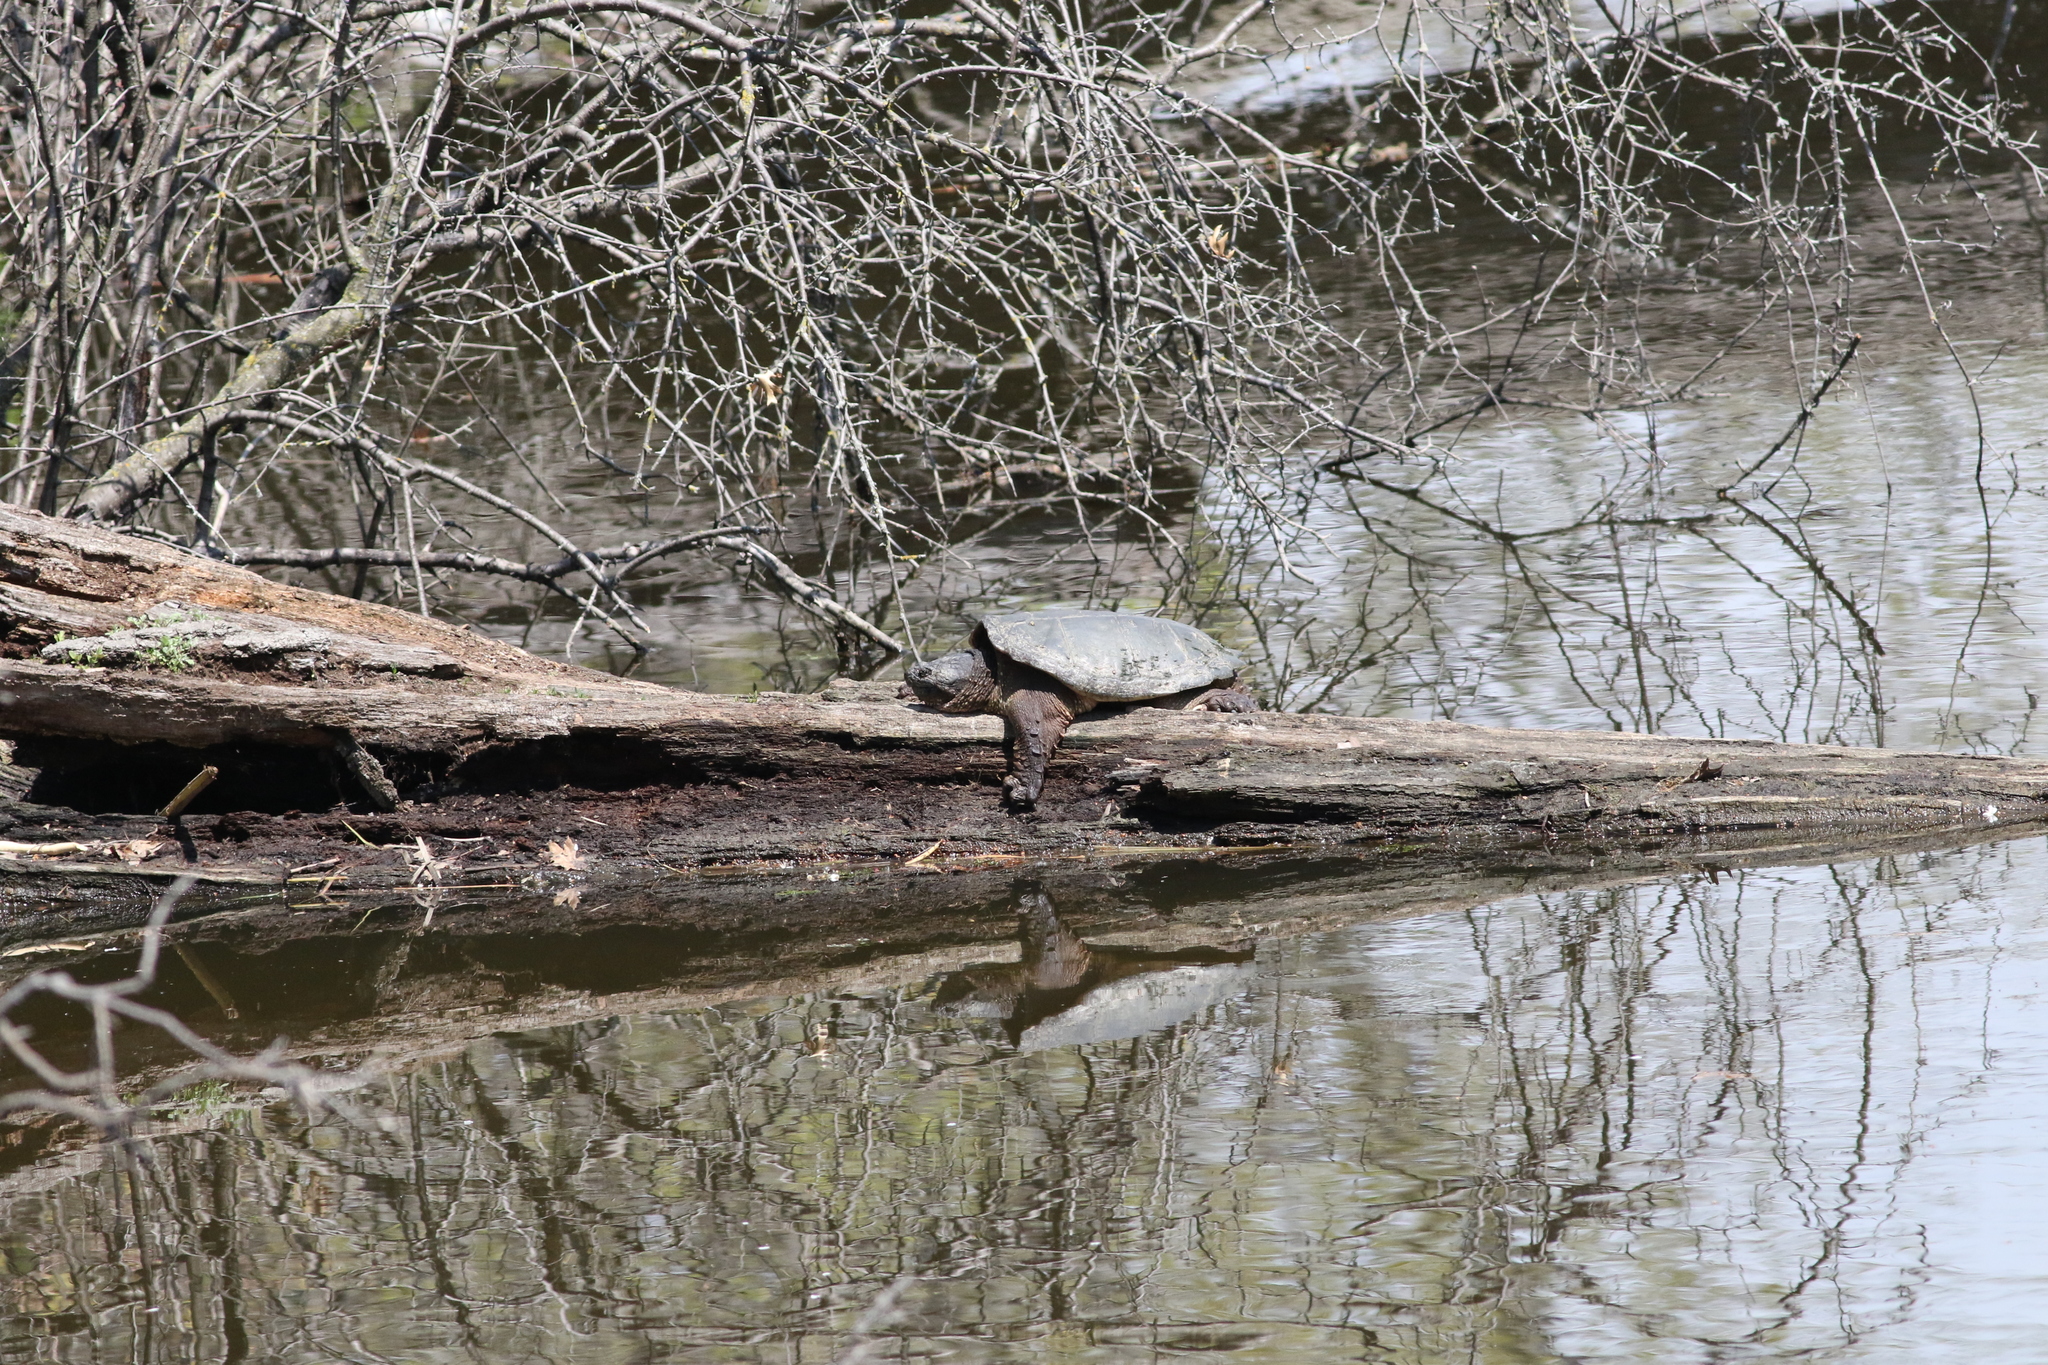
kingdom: Animalia
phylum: Chordata
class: Testudines
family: Chelydridae
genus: Chelydra
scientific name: Chelydra serpentina
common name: Common snapping turtle
